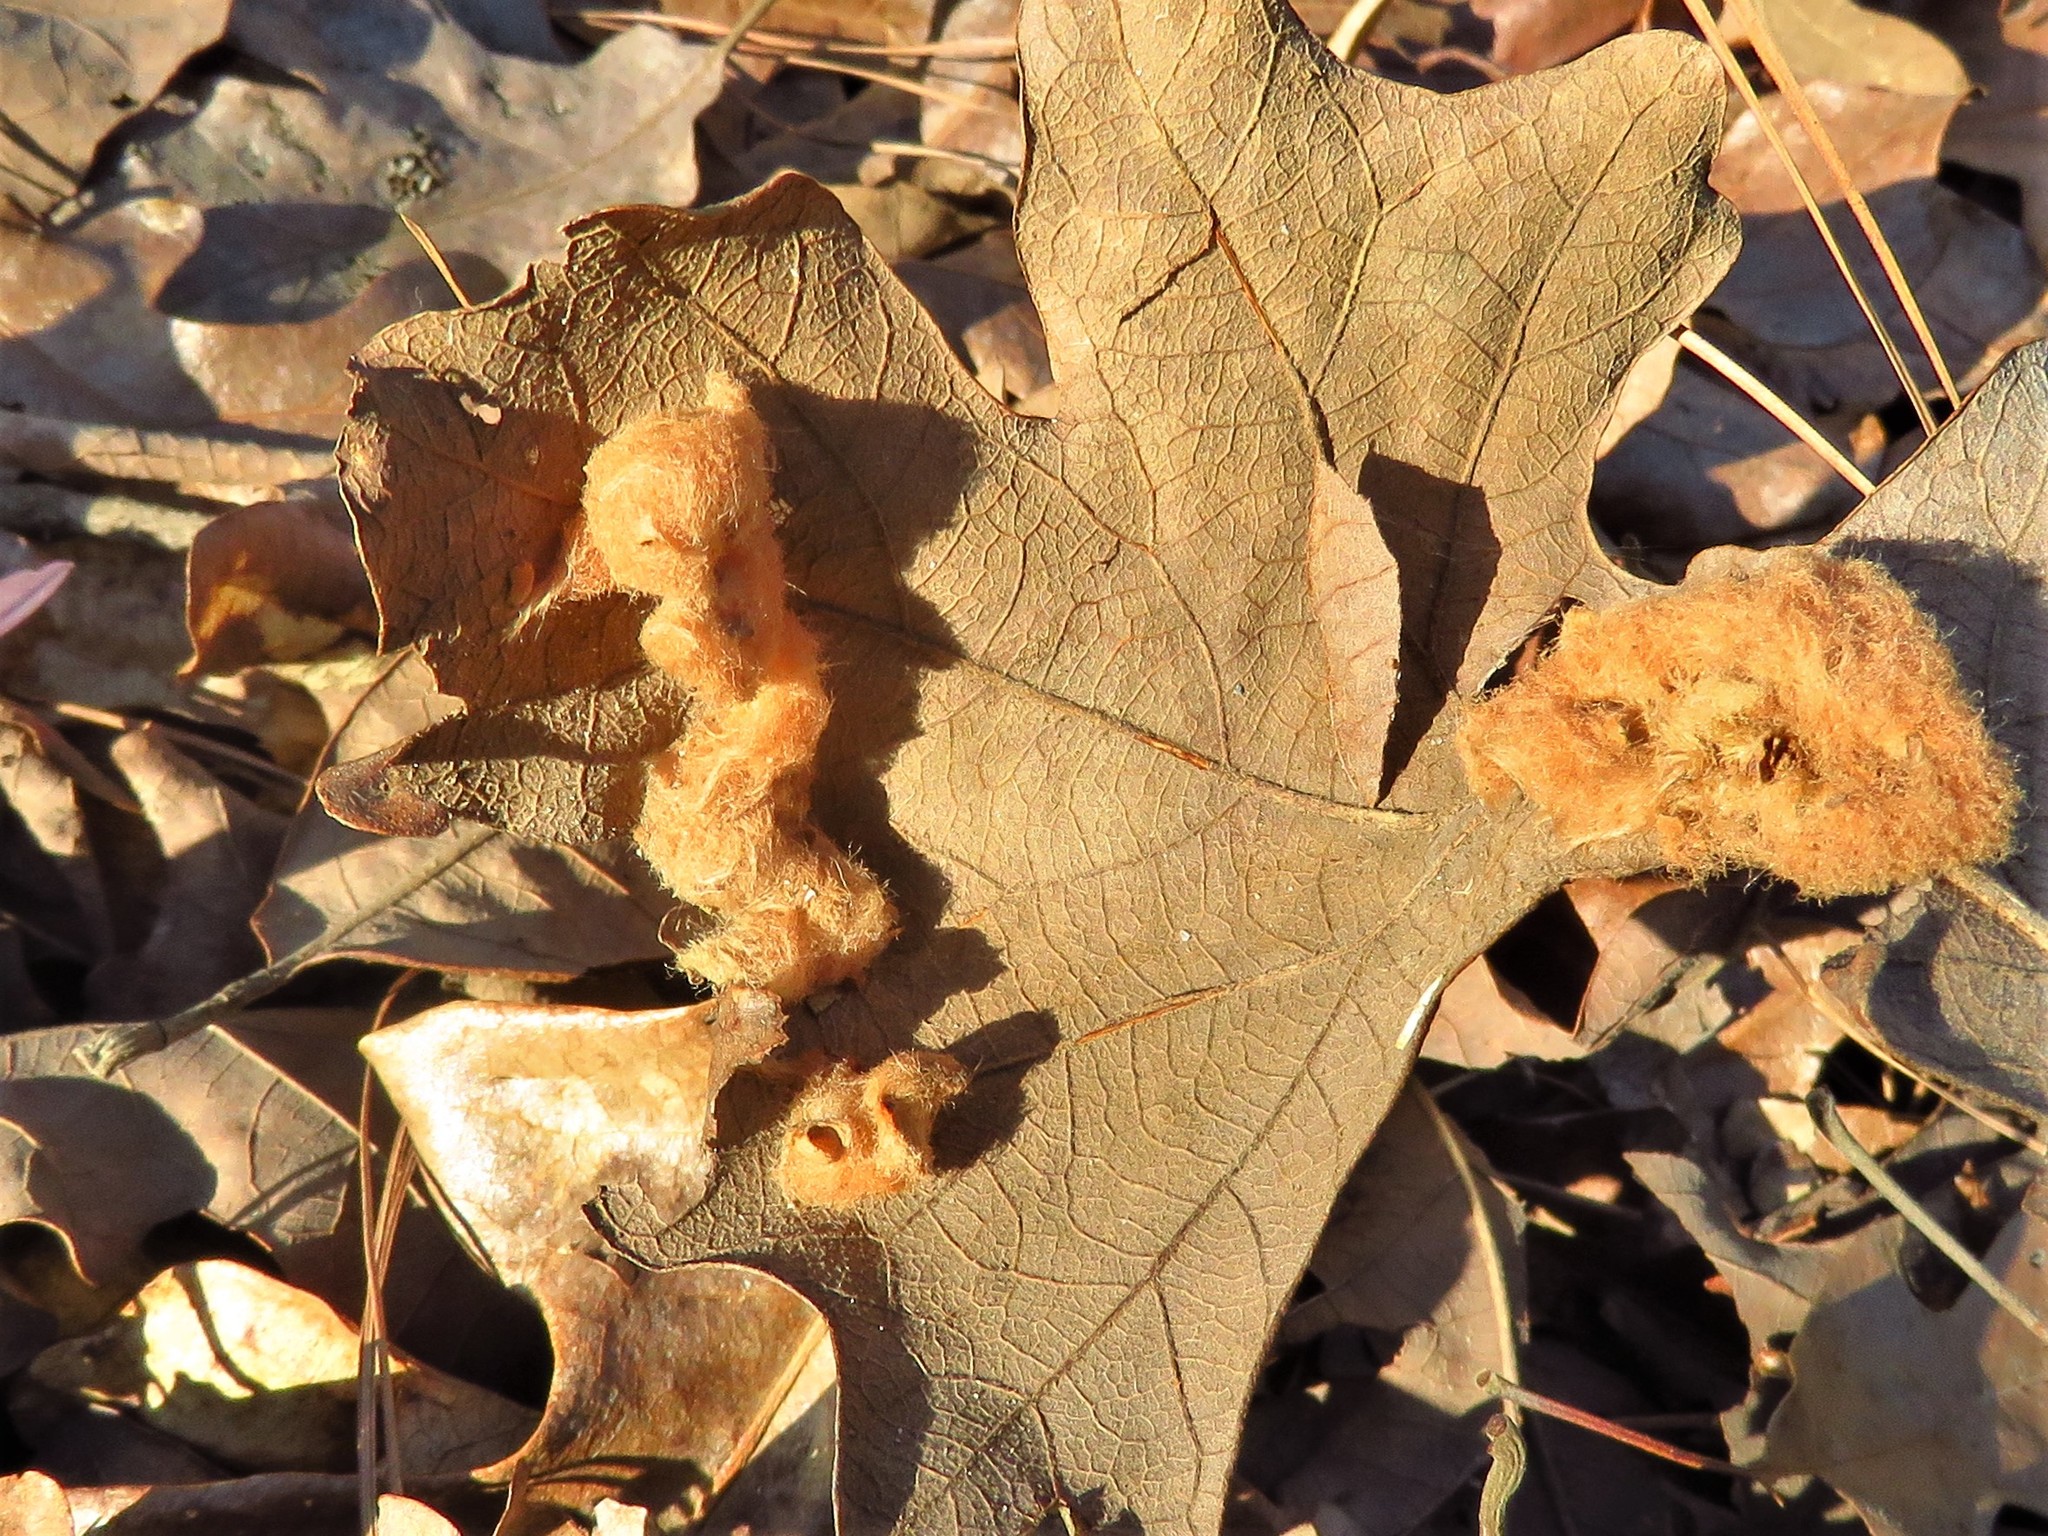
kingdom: Animalia
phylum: Arthropoda
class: Insecta
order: Hymenoptera
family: Cynipidae
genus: Andricus
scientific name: Andricus Druon pattoni
